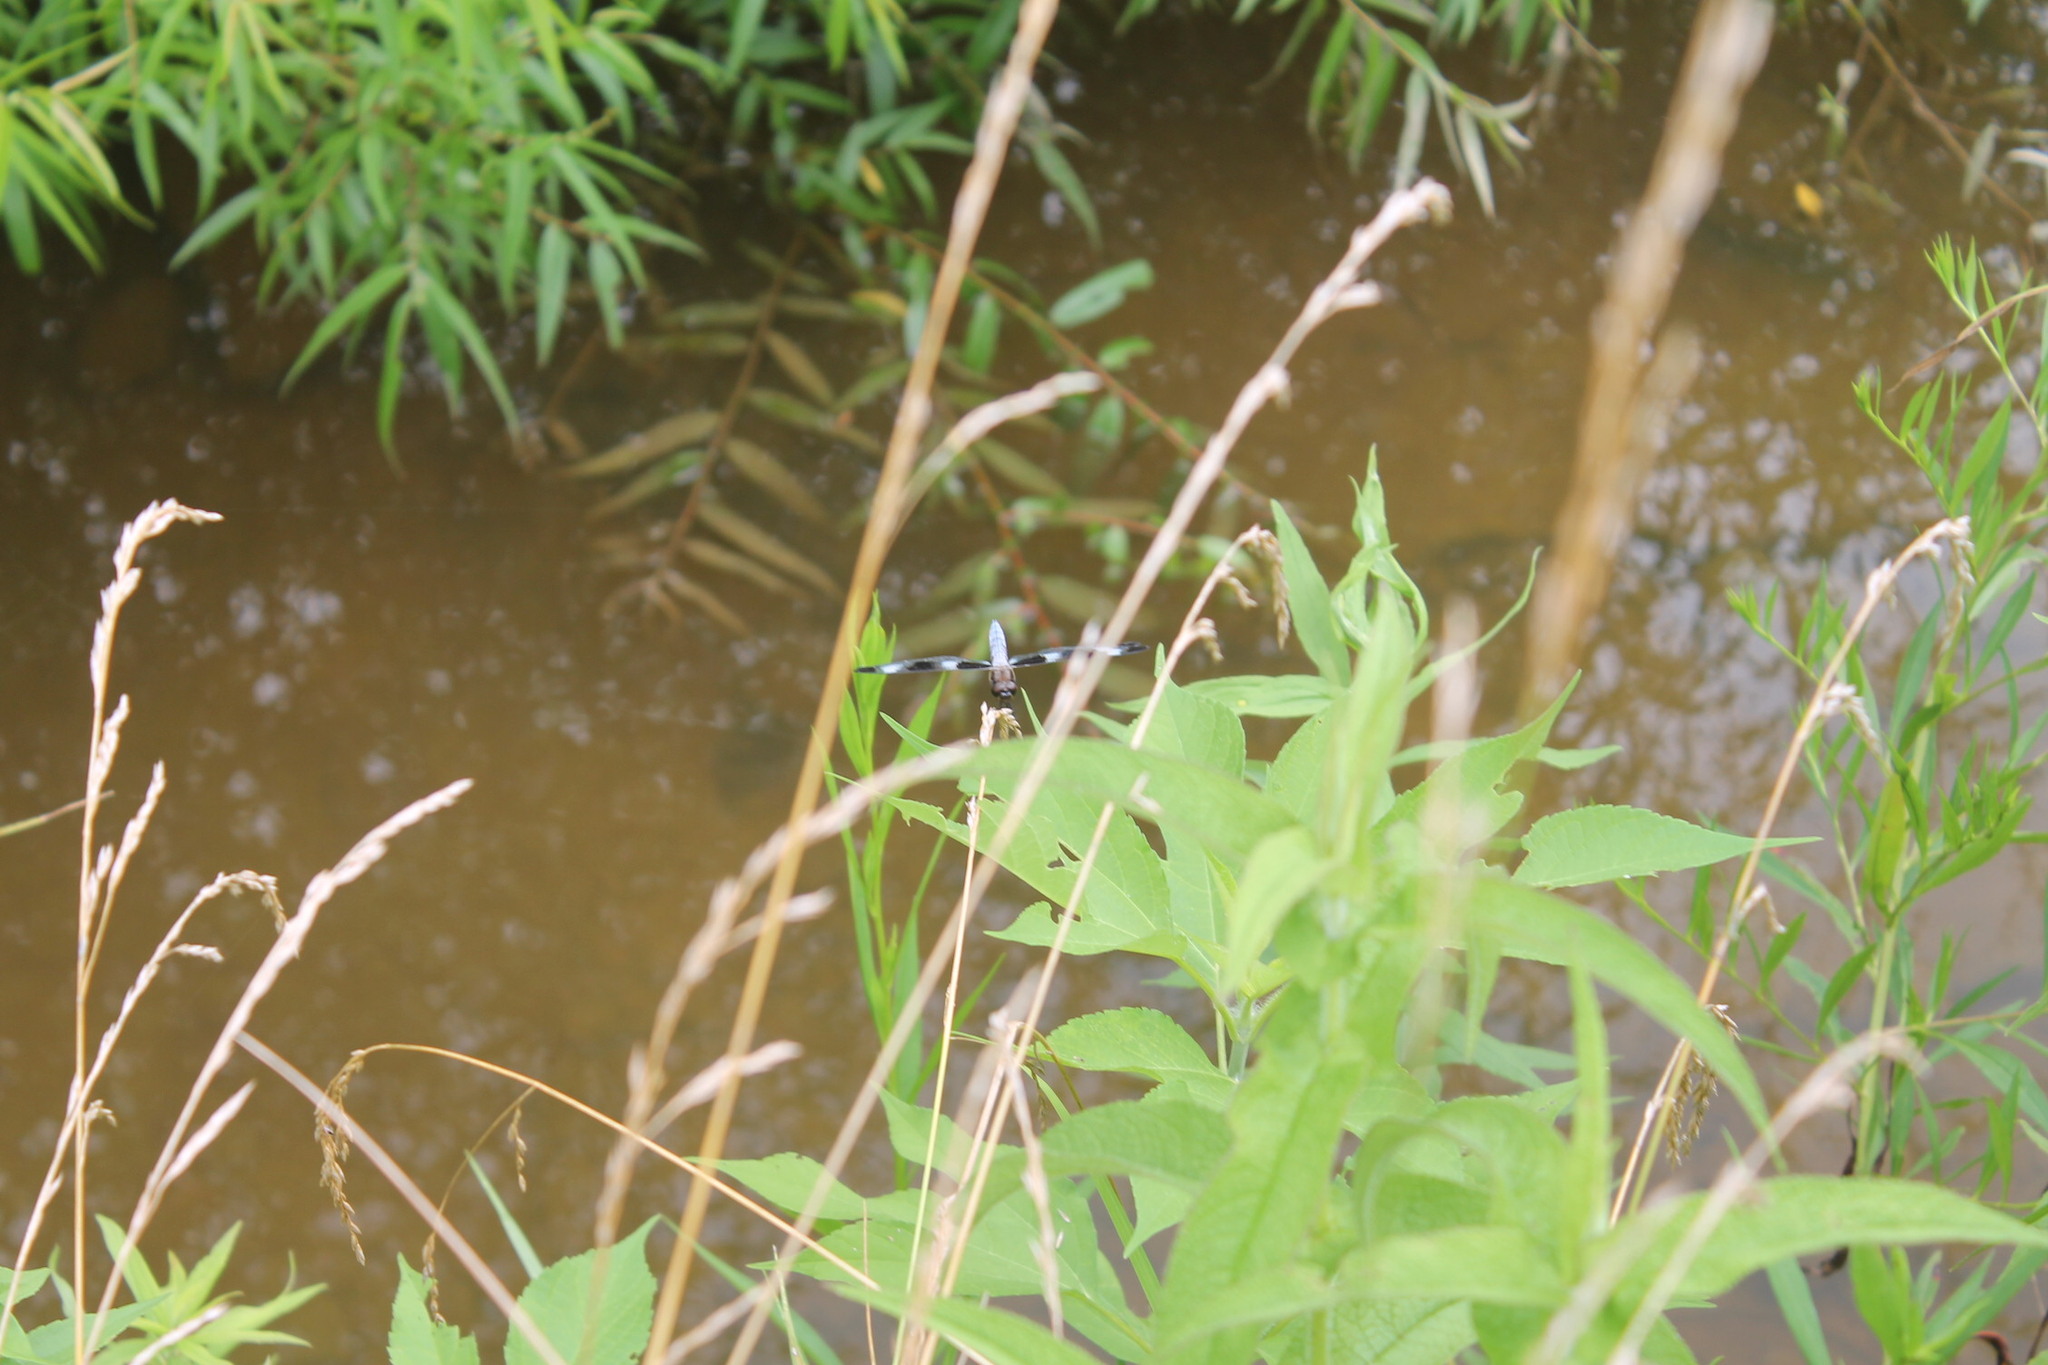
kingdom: Animalia
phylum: Arthropoda
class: Insecta
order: Odonata
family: Libellulidae
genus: Libellula
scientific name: Libellula pulchella
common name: Twelve-spotted skimmer
